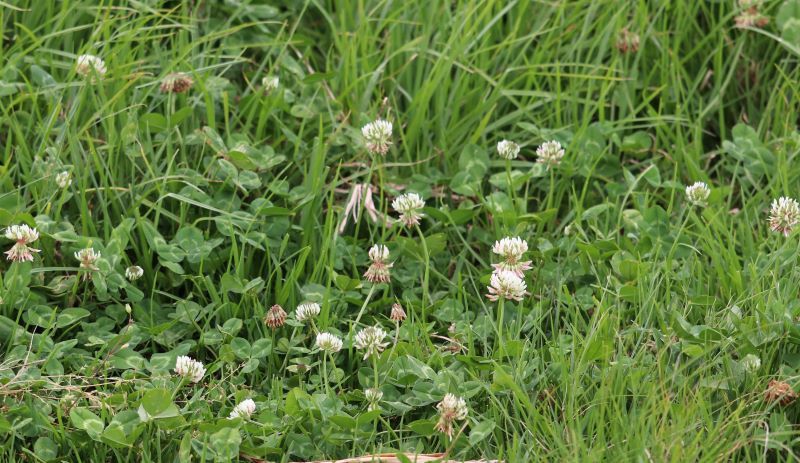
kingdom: Plantae
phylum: Tracheophyta
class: Magnoliopsida
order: Fabales
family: Fabaceae
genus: Trifolium
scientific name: Trifolium repens
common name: White clover
